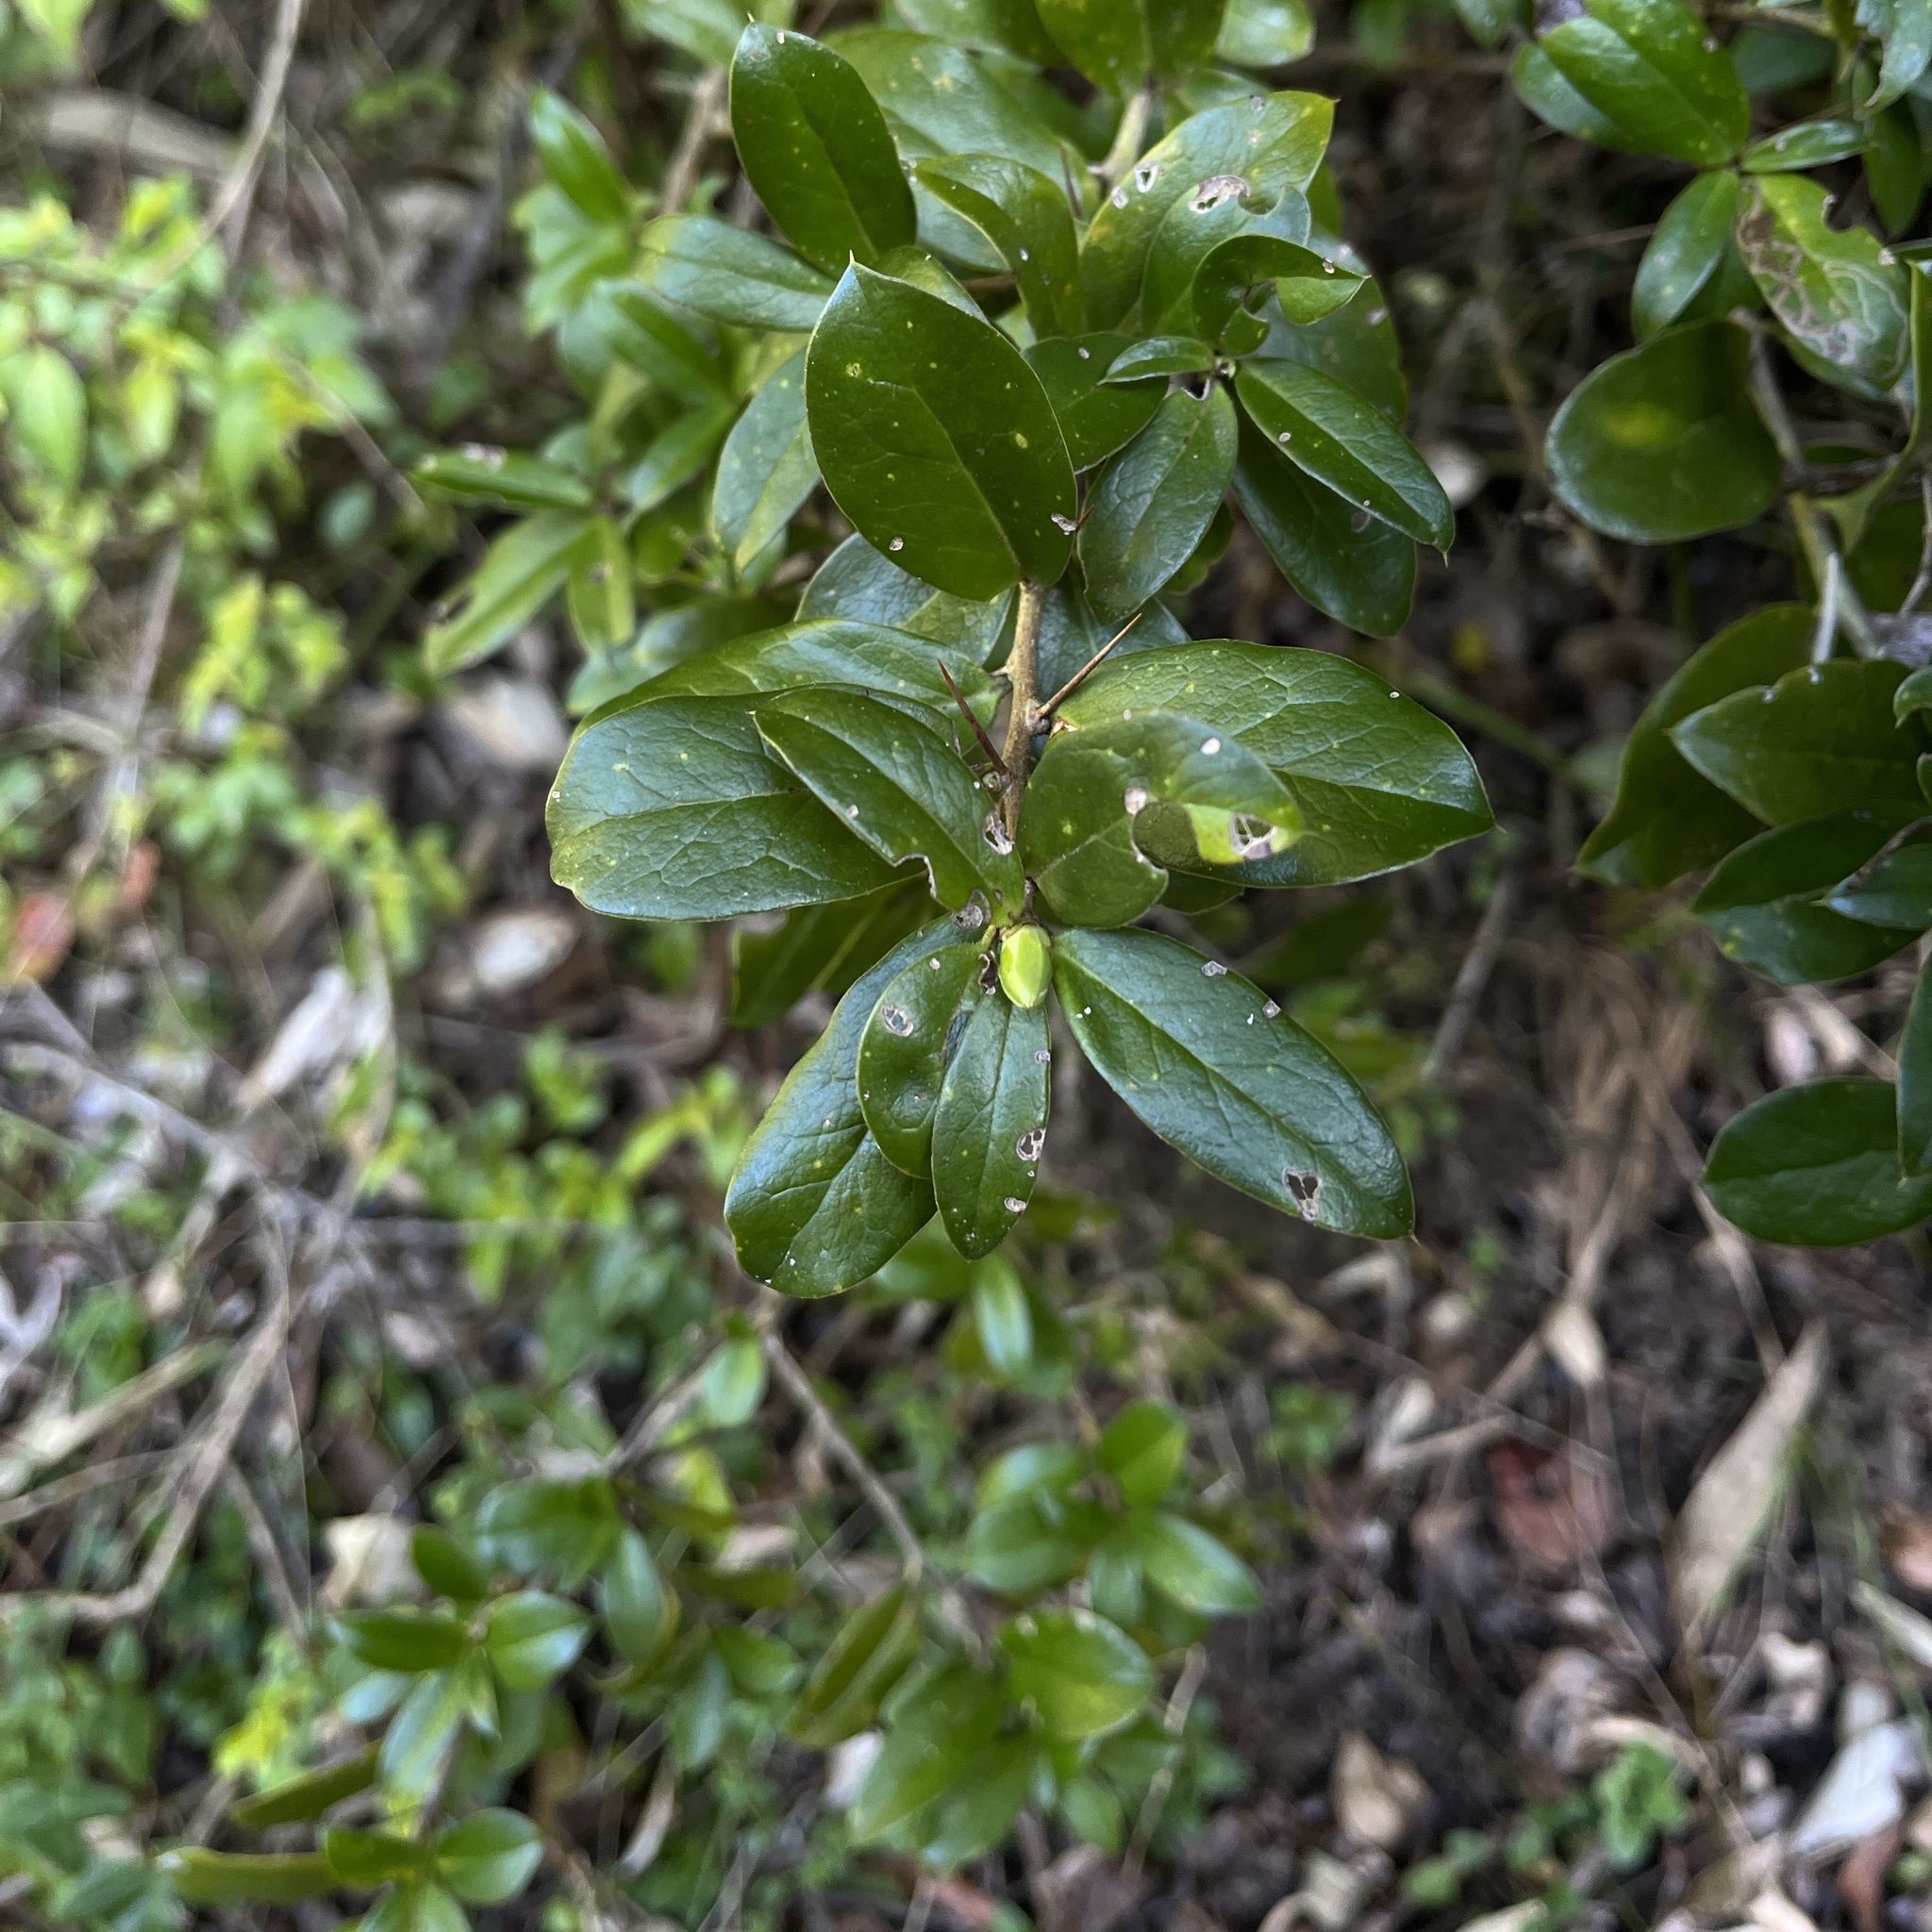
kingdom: Plantae
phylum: Tracheophyta
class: Magnoliopsida
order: Asterales
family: Asteraceae
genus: Archidasyphyllum
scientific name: Archidasyphyllum diacanthoides
